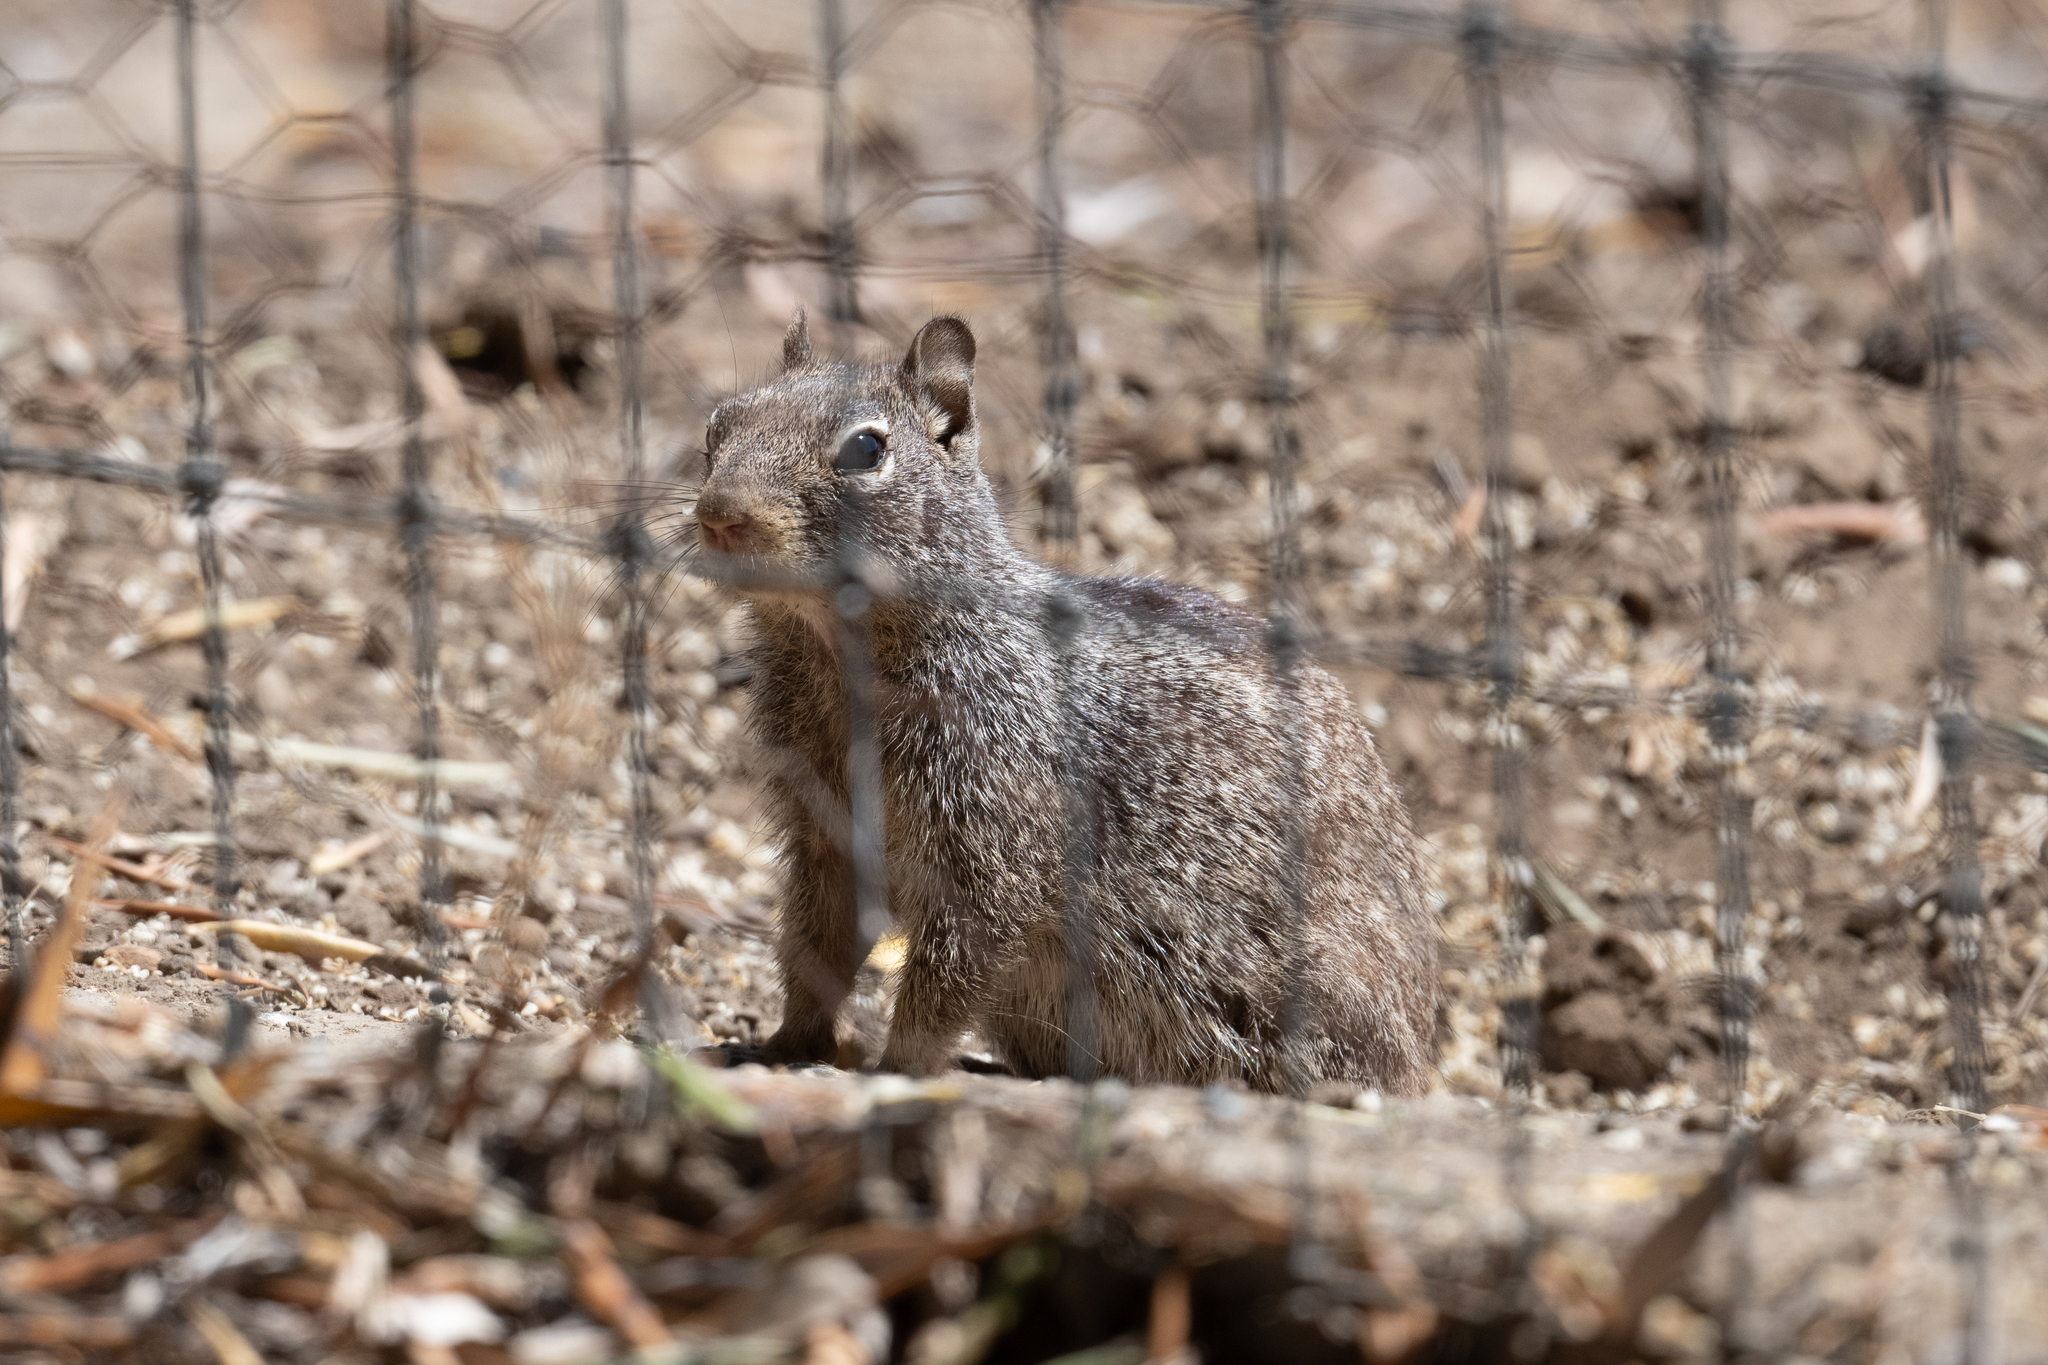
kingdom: Animalia
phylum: Chordata
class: Mammalia
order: Rodentia
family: Sciuridae
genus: Otospermophilus
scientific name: Otospermophilus beecheyi
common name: California ground squirrel
